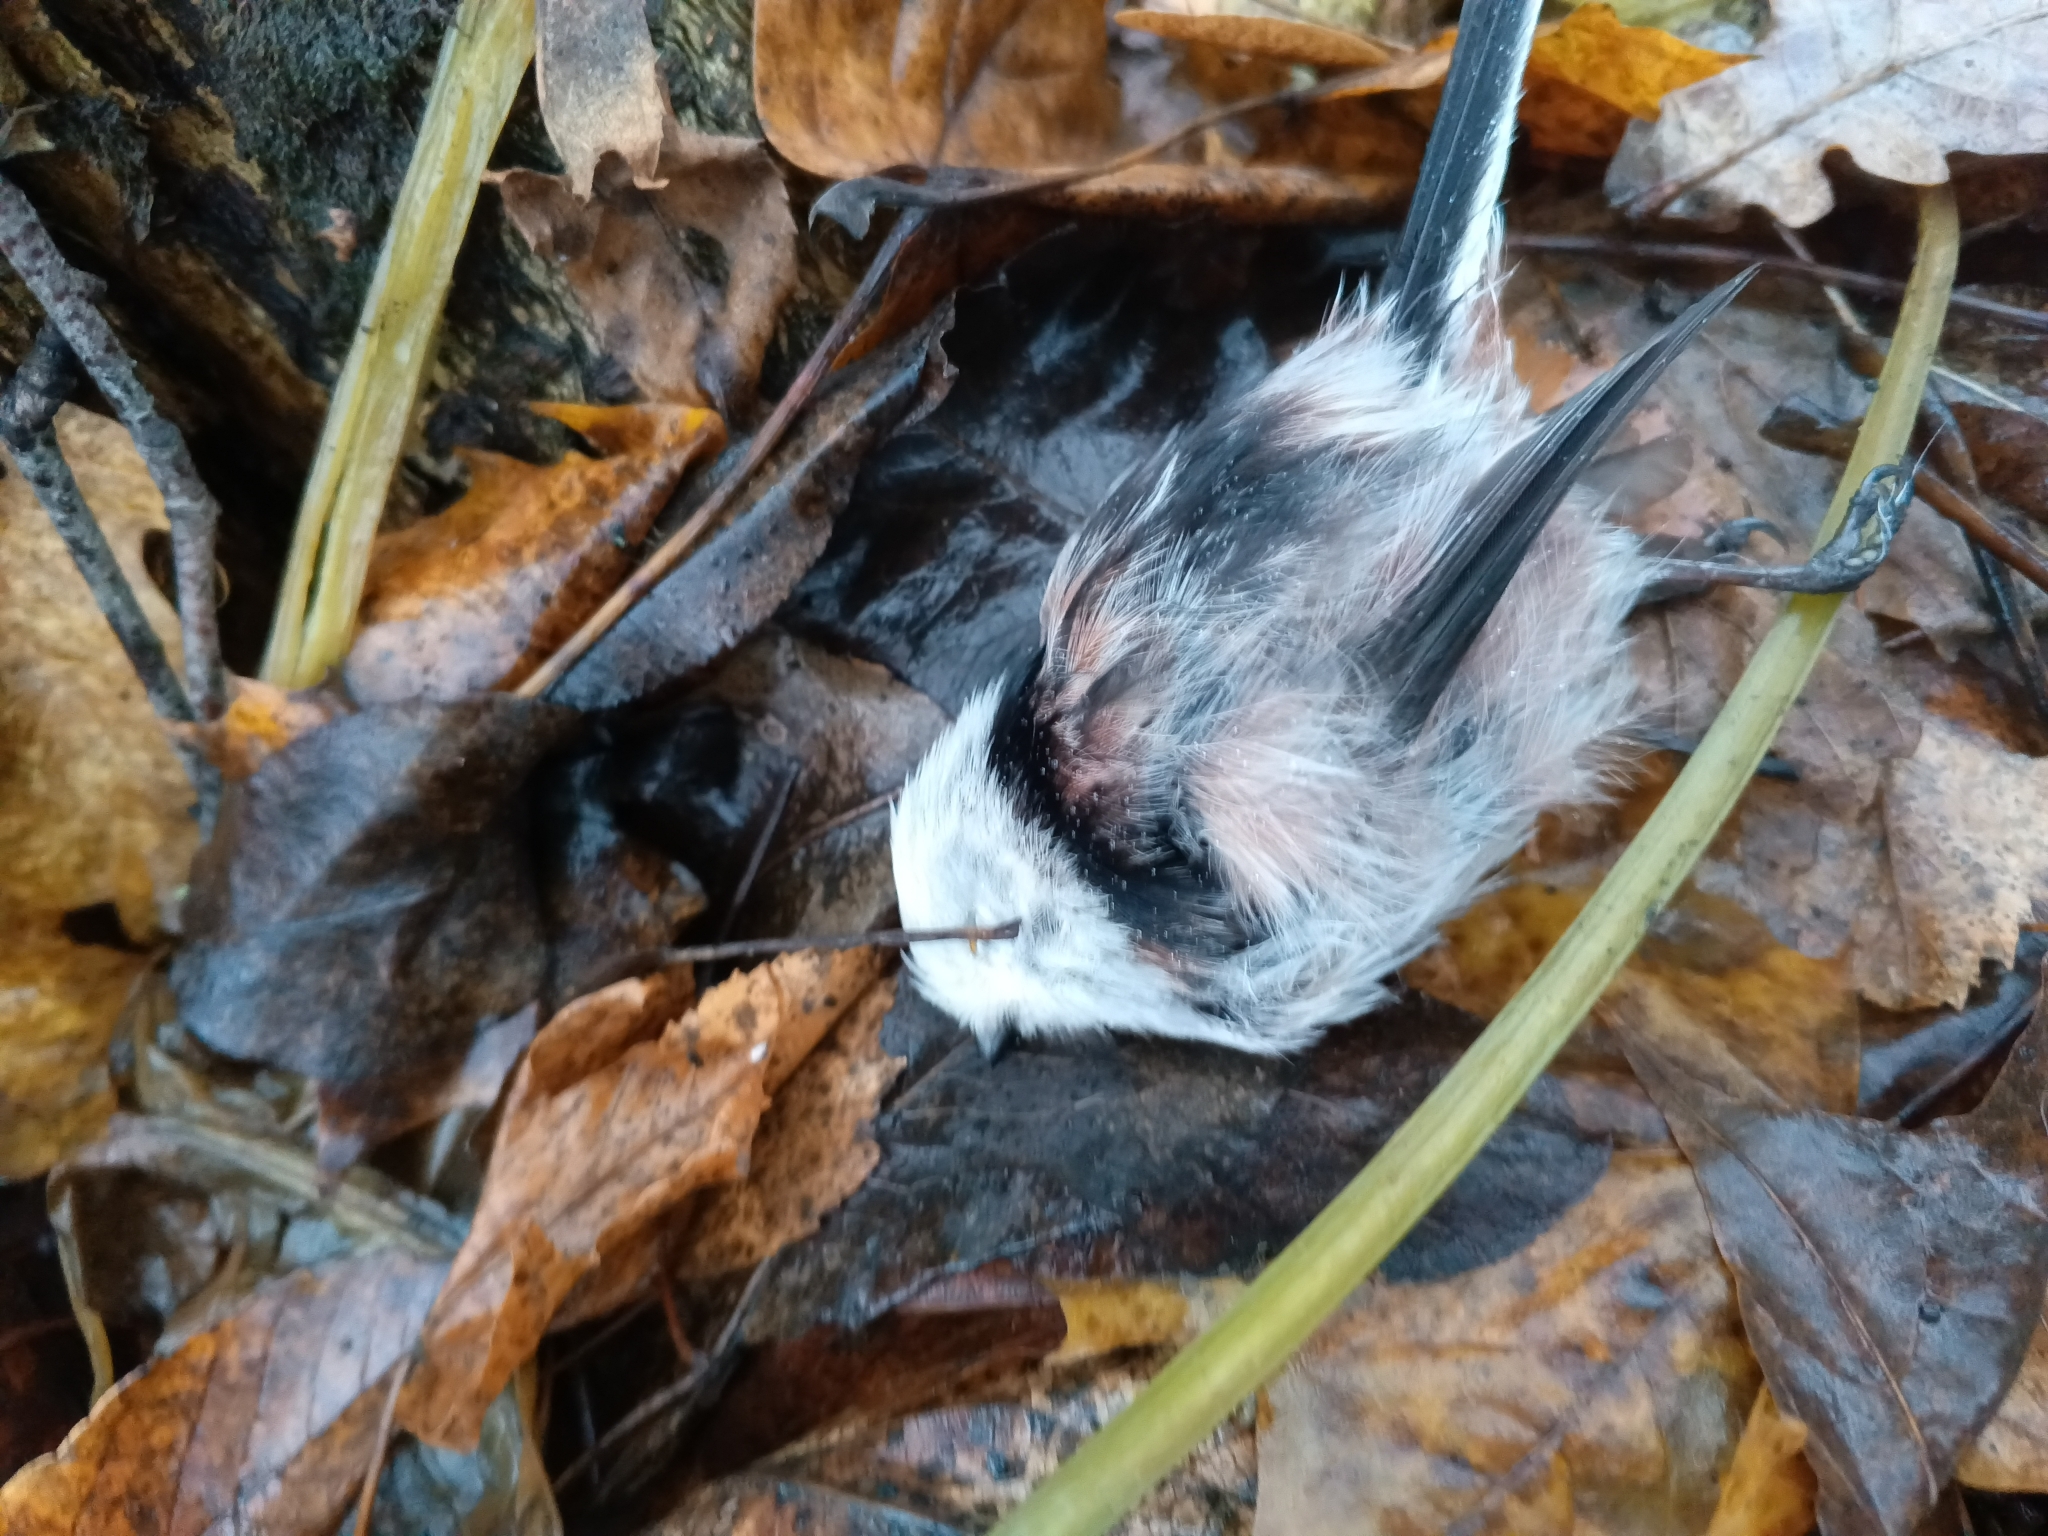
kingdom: Animalia
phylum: Chordata
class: Aves
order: Passeriformes
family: Aegithalidae
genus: Aegithalos
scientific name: Aegithalos caudatus
